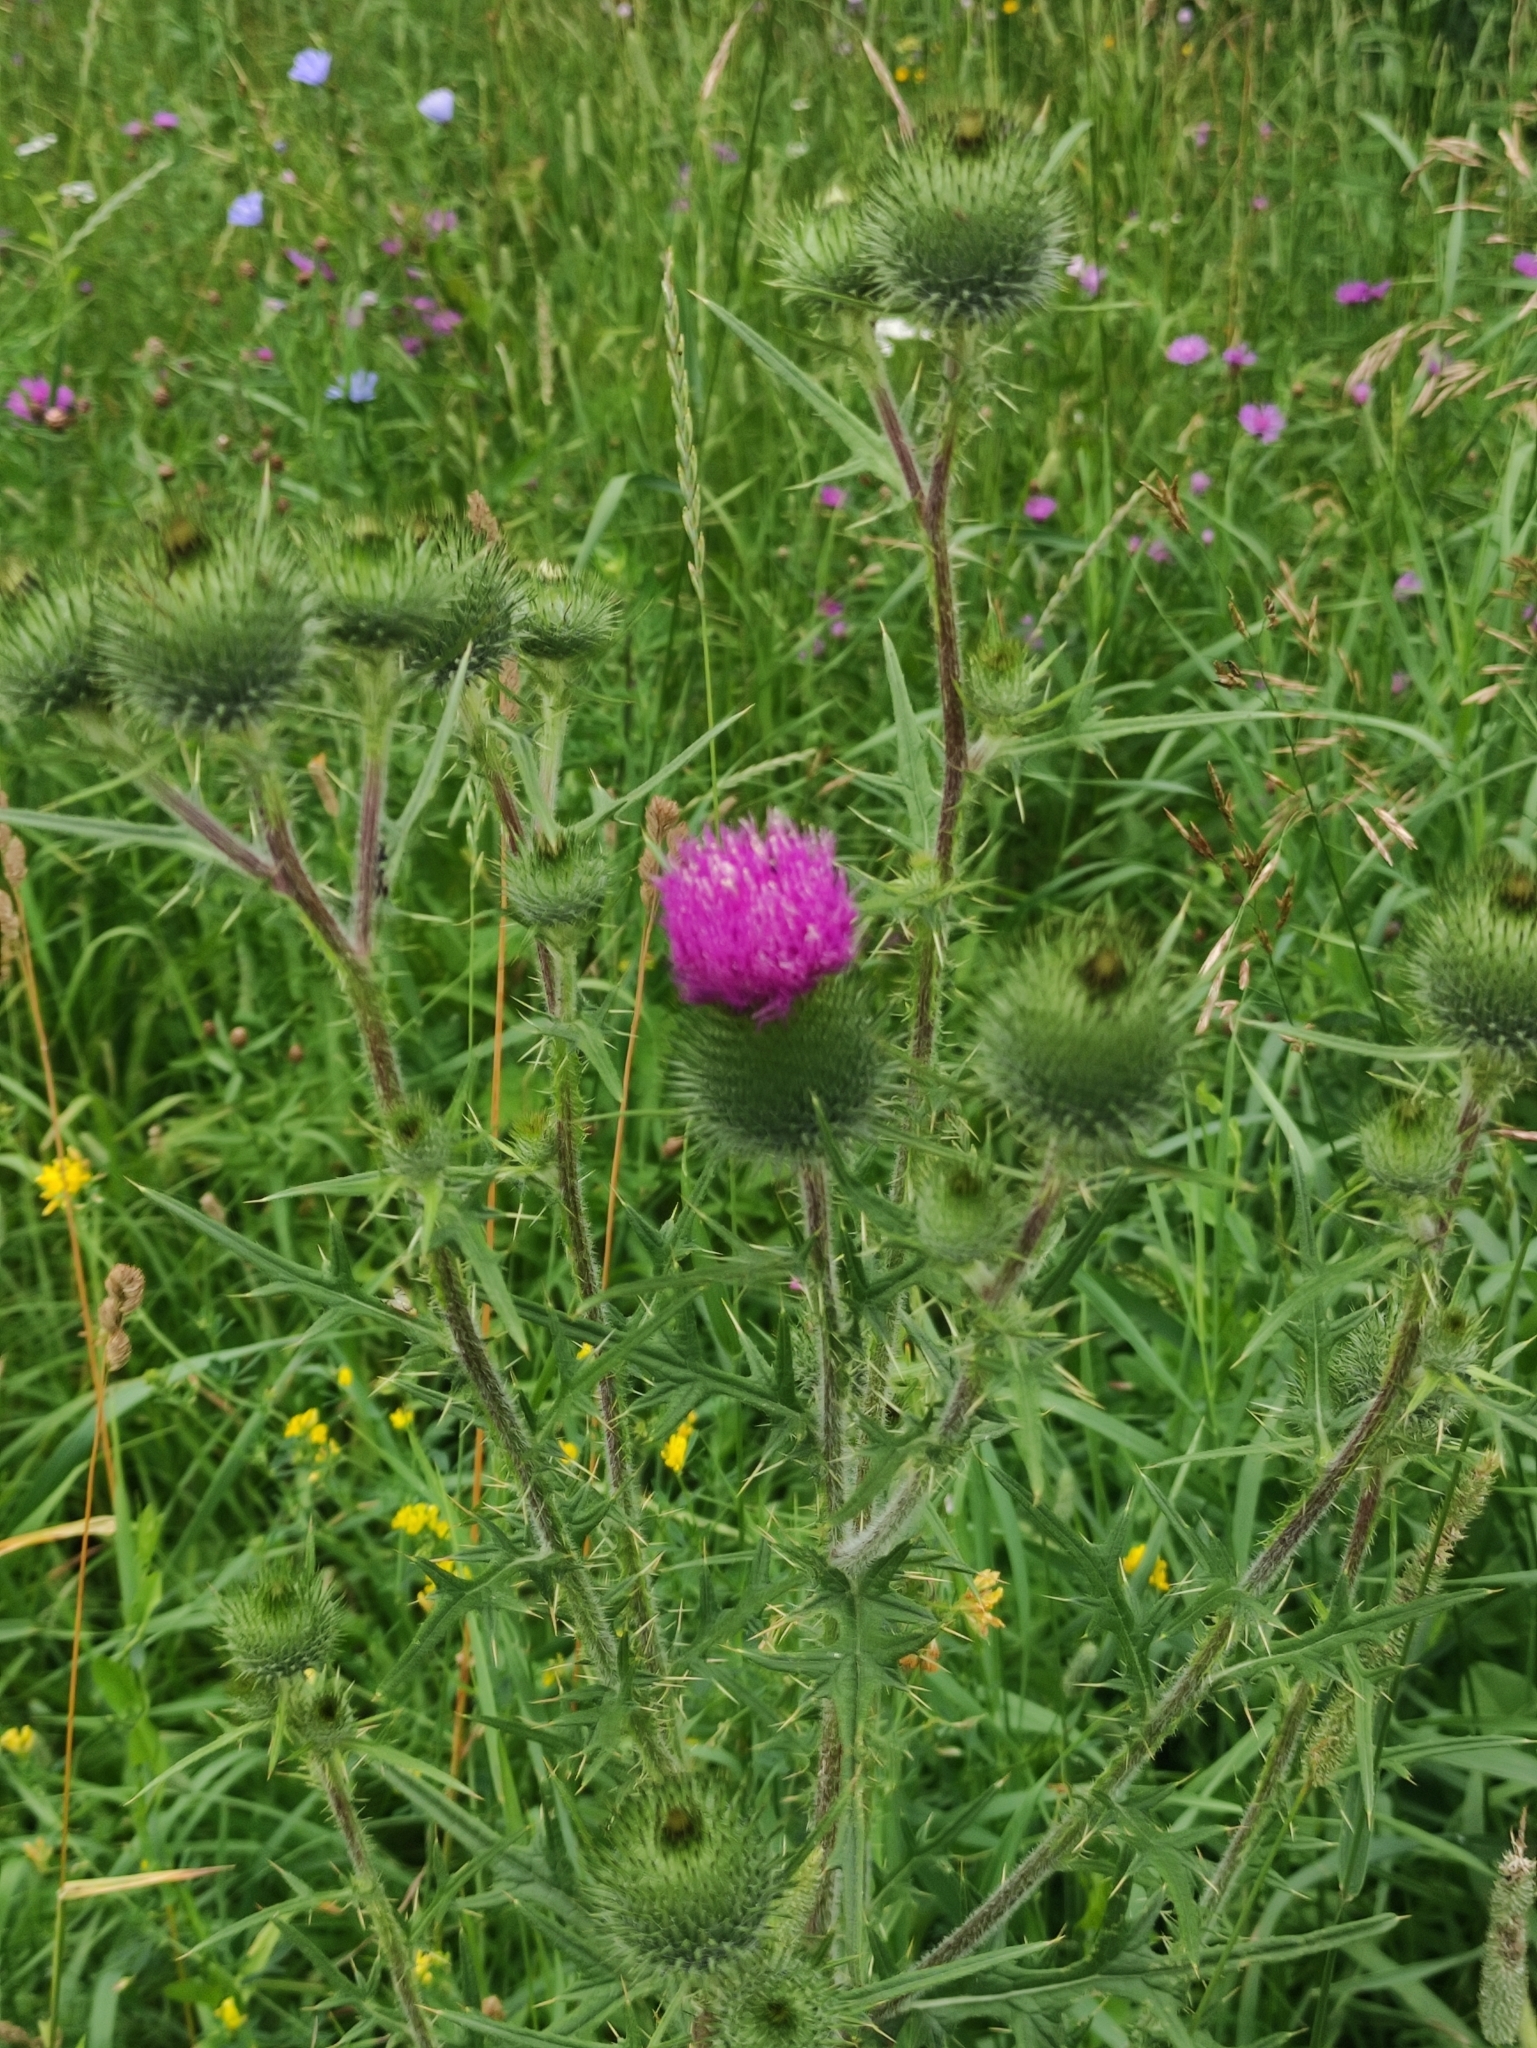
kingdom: Plantae
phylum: Tracheophyta
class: Magnoliopsida
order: Asterales
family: Asteraceae
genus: Cirsium
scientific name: Cirsium vulgare
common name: Bull thistle
